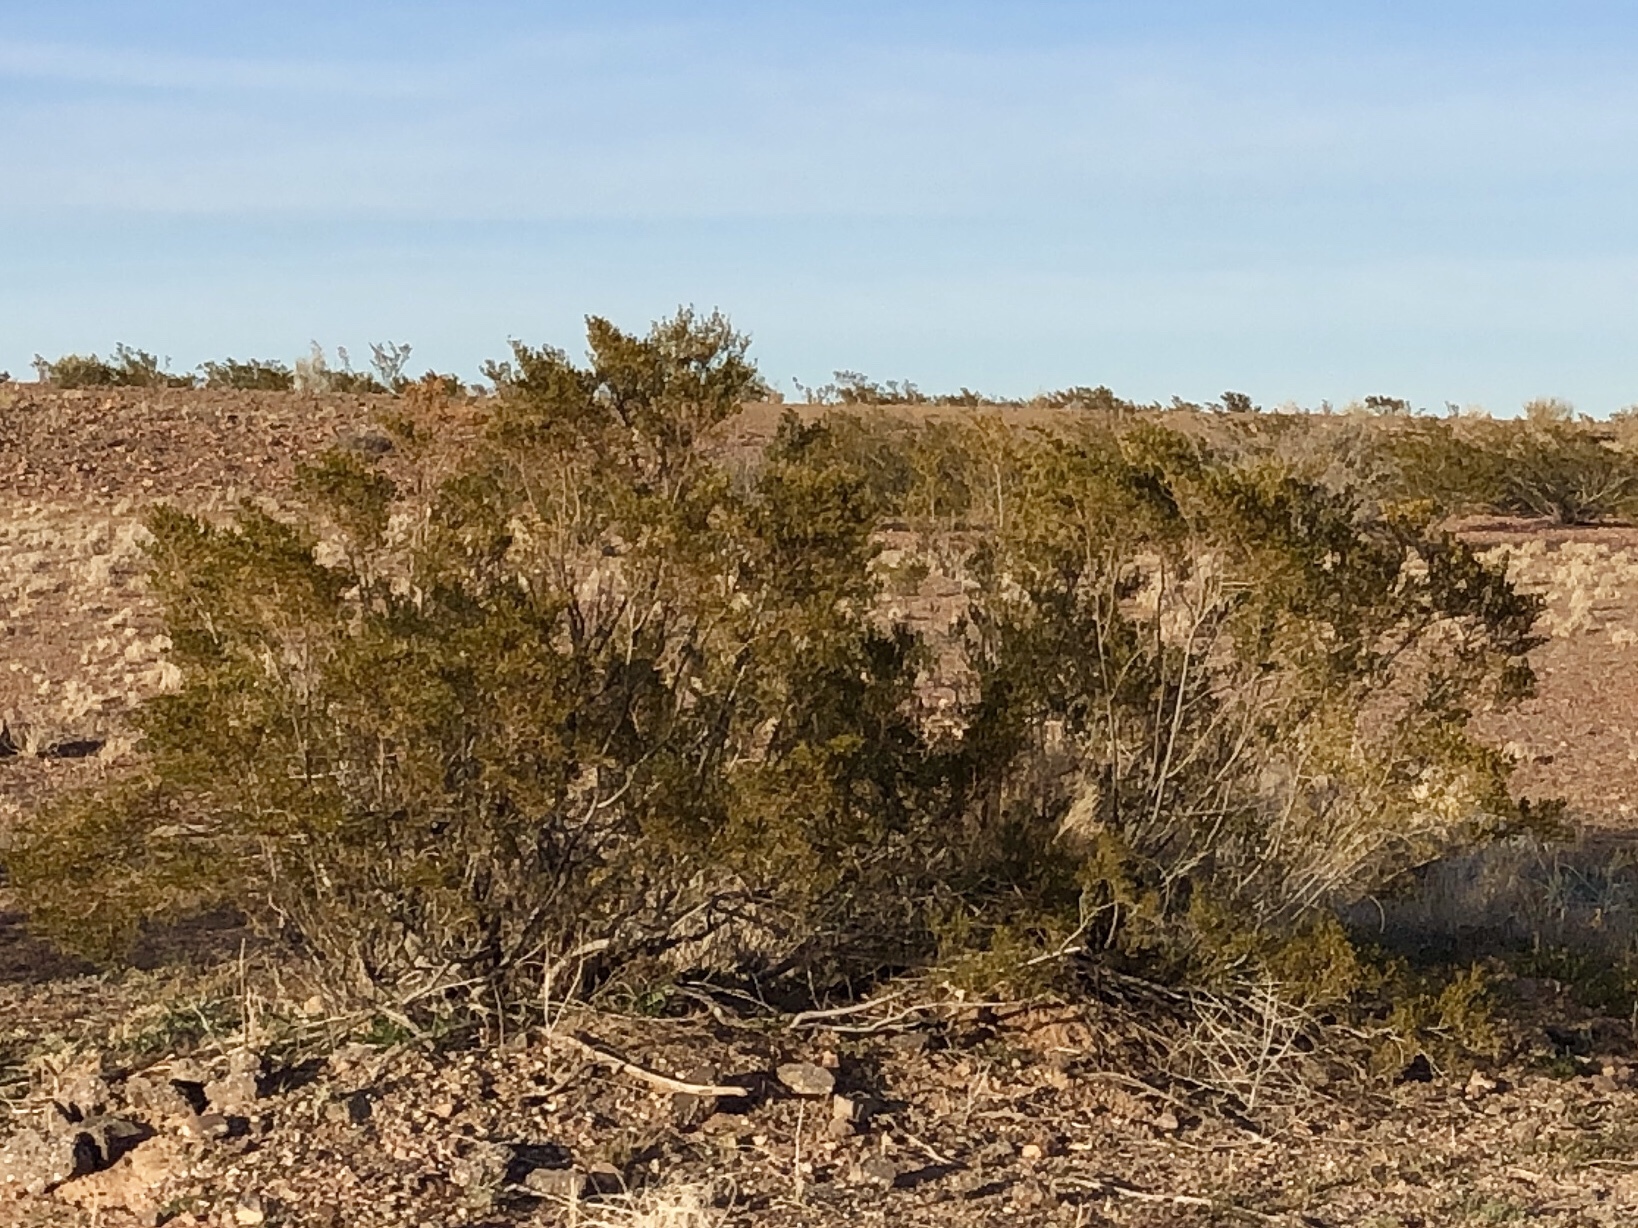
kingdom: Plantae
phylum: Tracheophyta
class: Magnoliopsida
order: Zygophyllales
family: Zygophyllaceae
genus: Larrea
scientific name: Larrea tridentata
